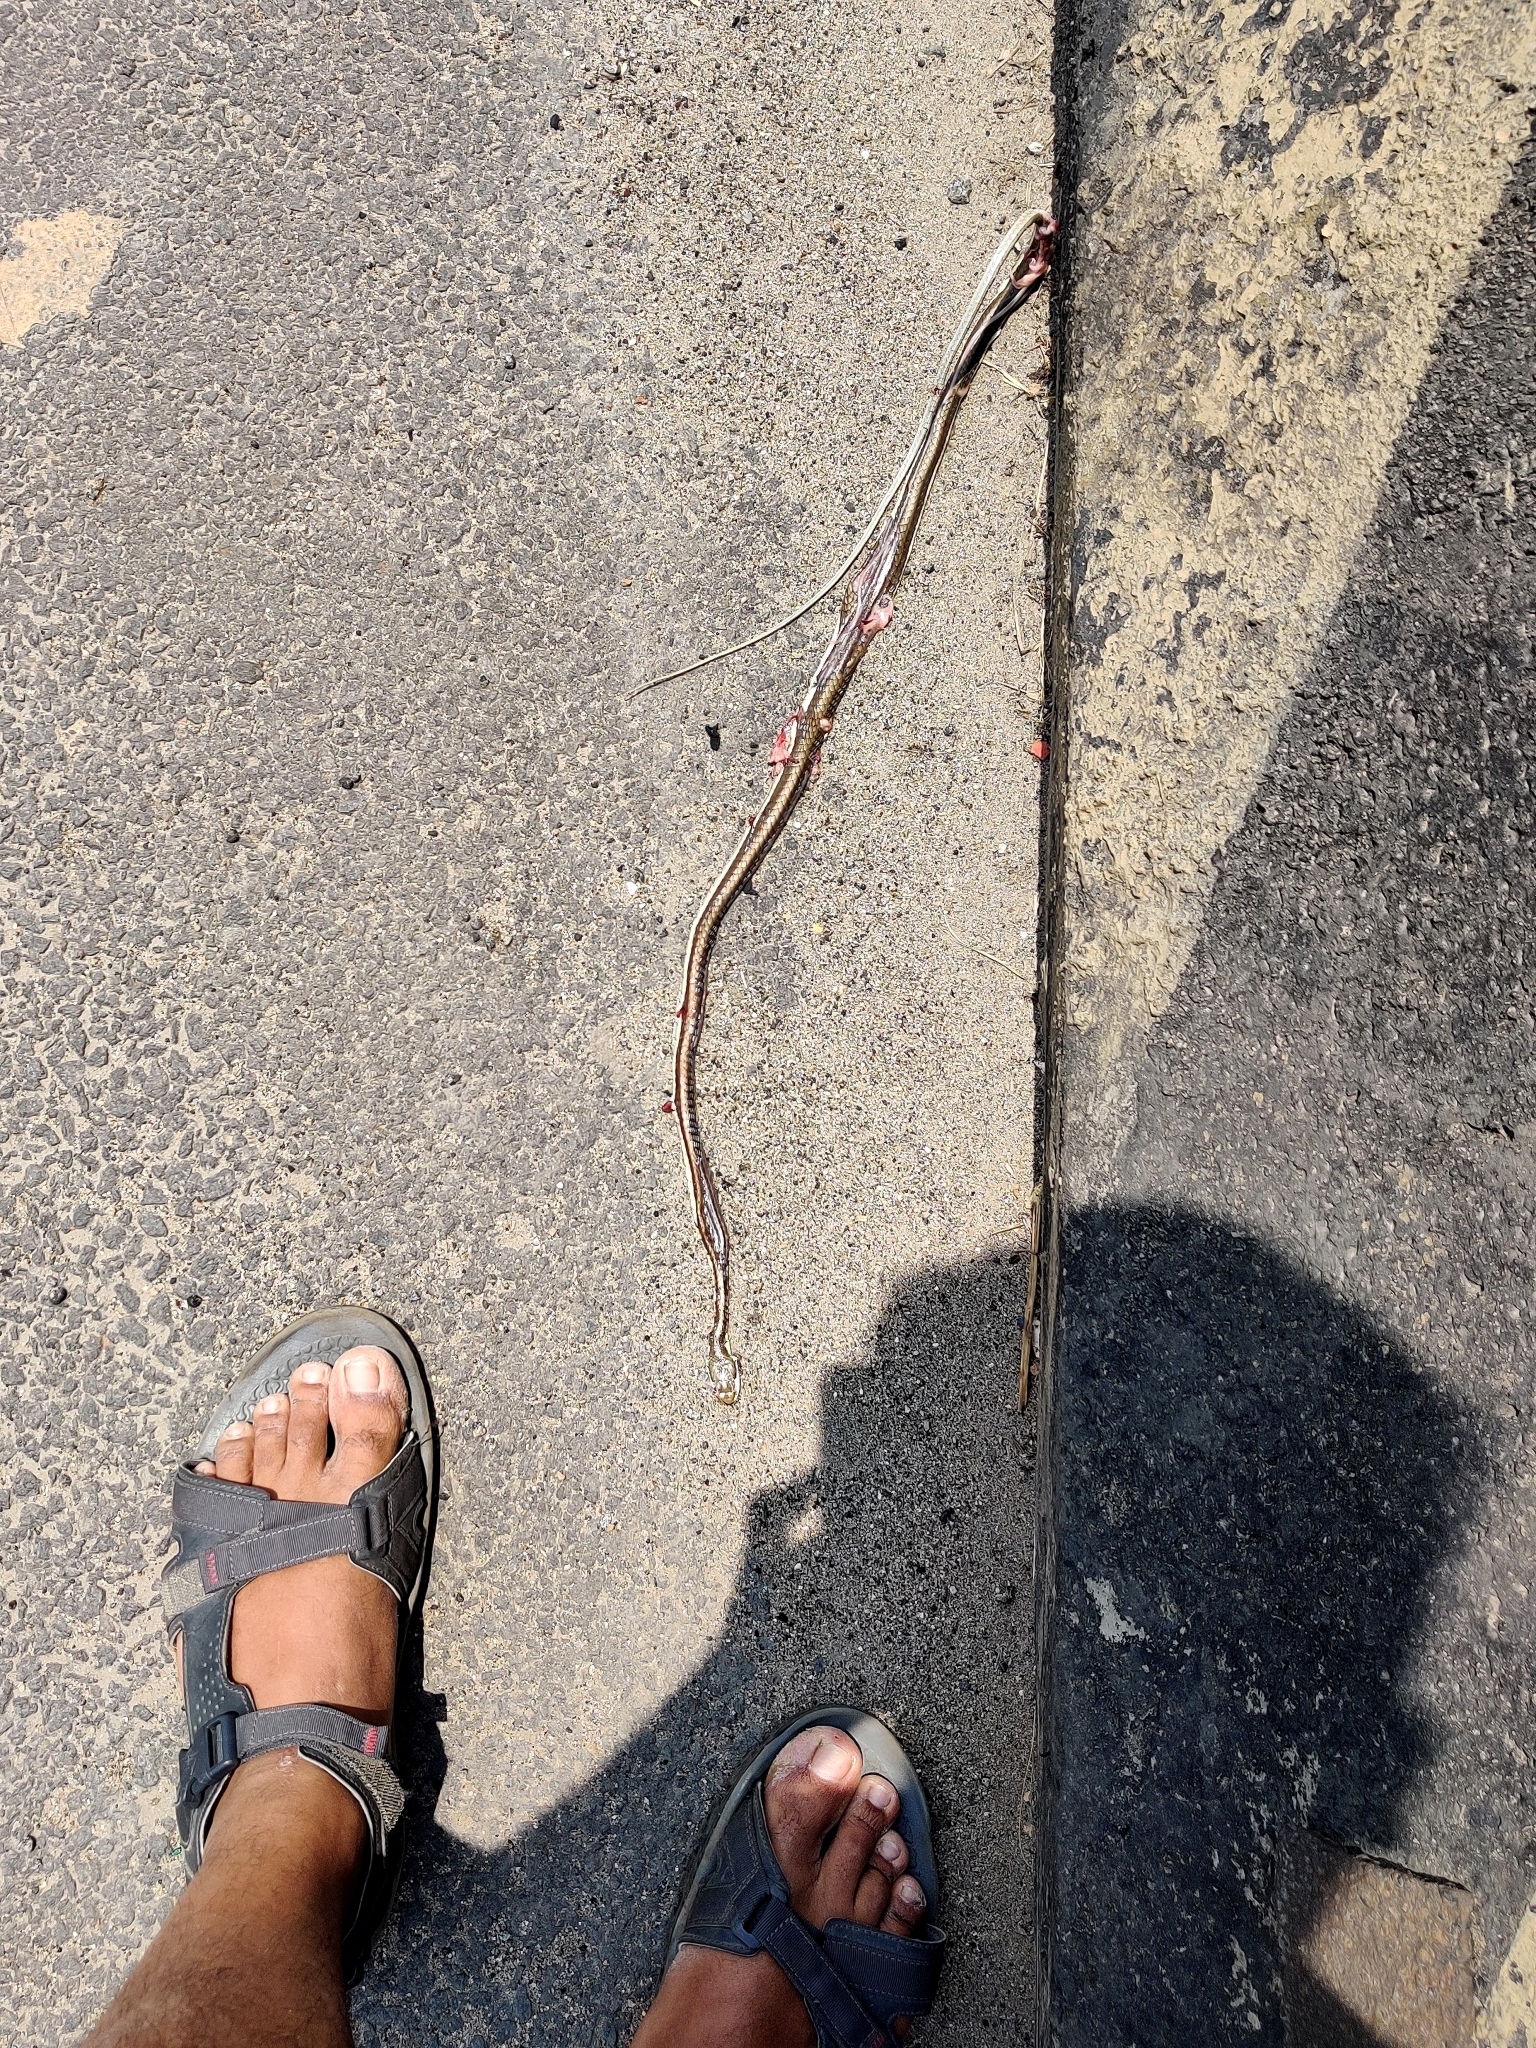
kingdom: Animalia
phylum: Chordata
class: Squamata
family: Colubridae
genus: Dendrelaphis
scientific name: Dendrelaphis tristis
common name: Daudin's bronzeback
